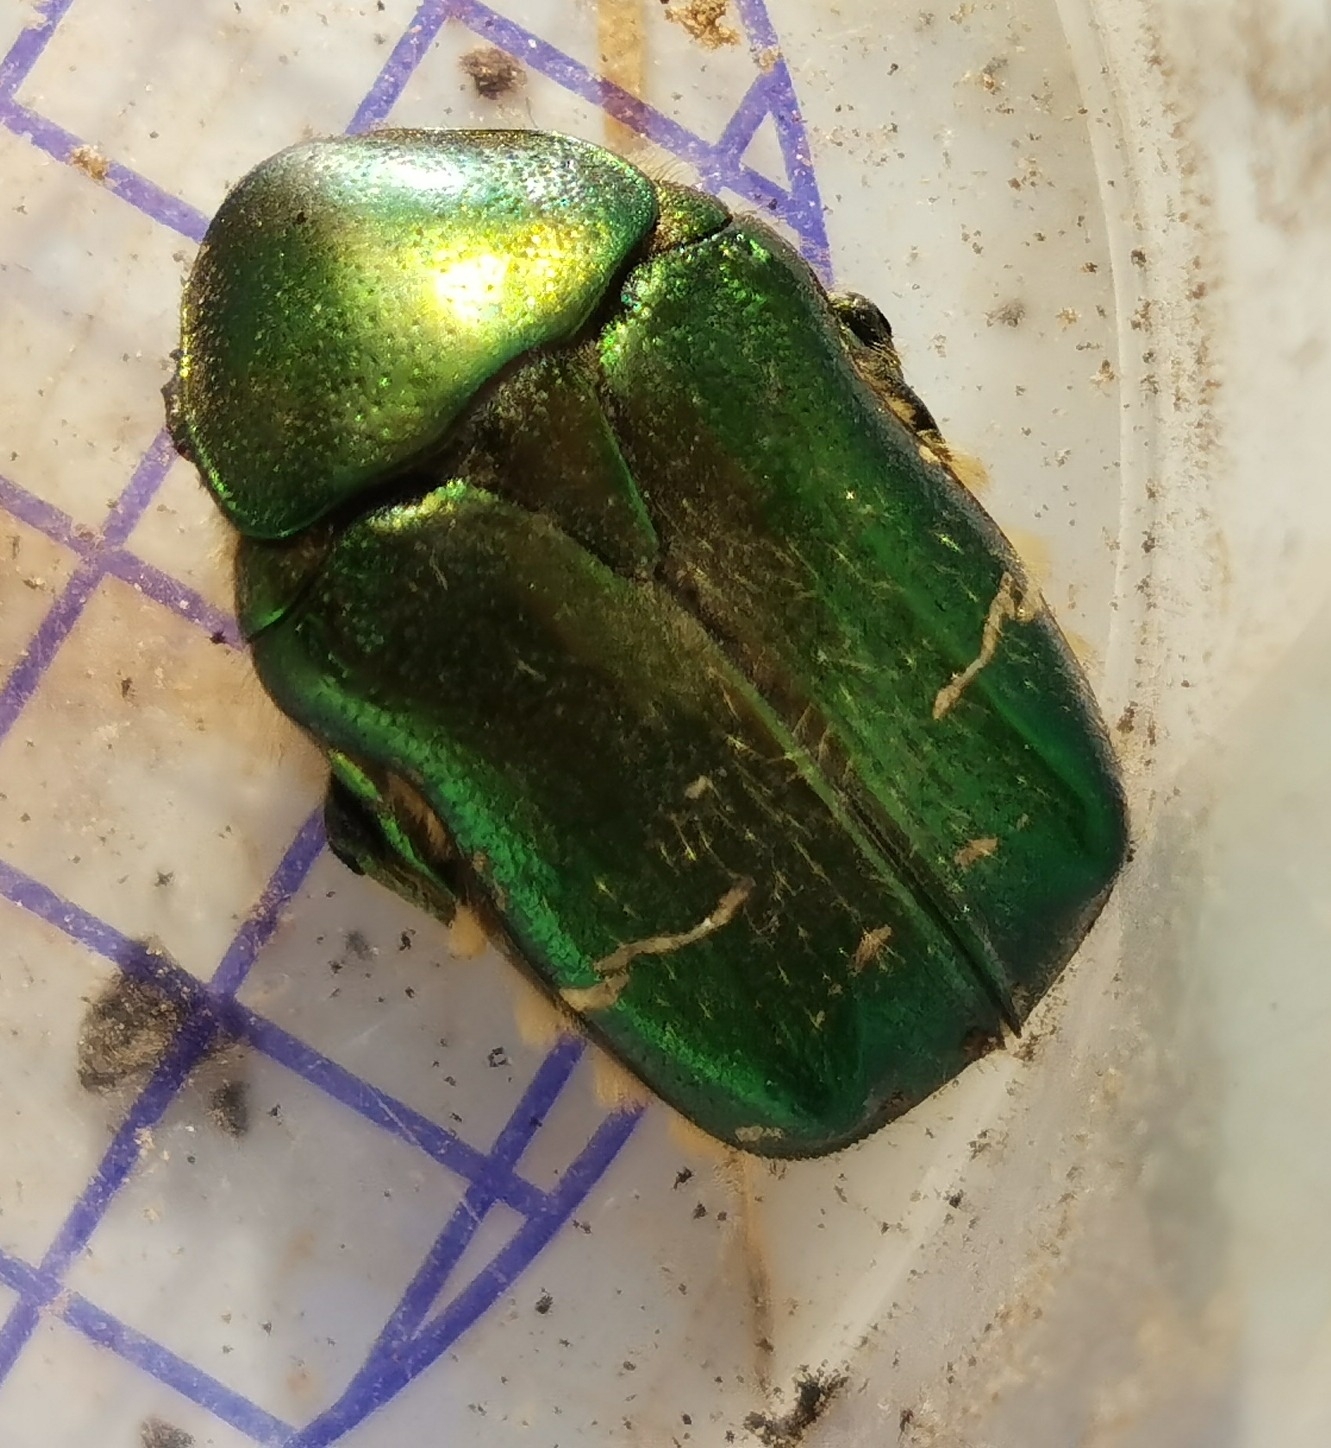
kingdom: Animalia
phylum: Arthropoda
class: Insecta
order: Coleoptera
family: Scarabaeidae
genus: Cetonia
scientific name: Cetonia aurata
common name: Rose chafer
